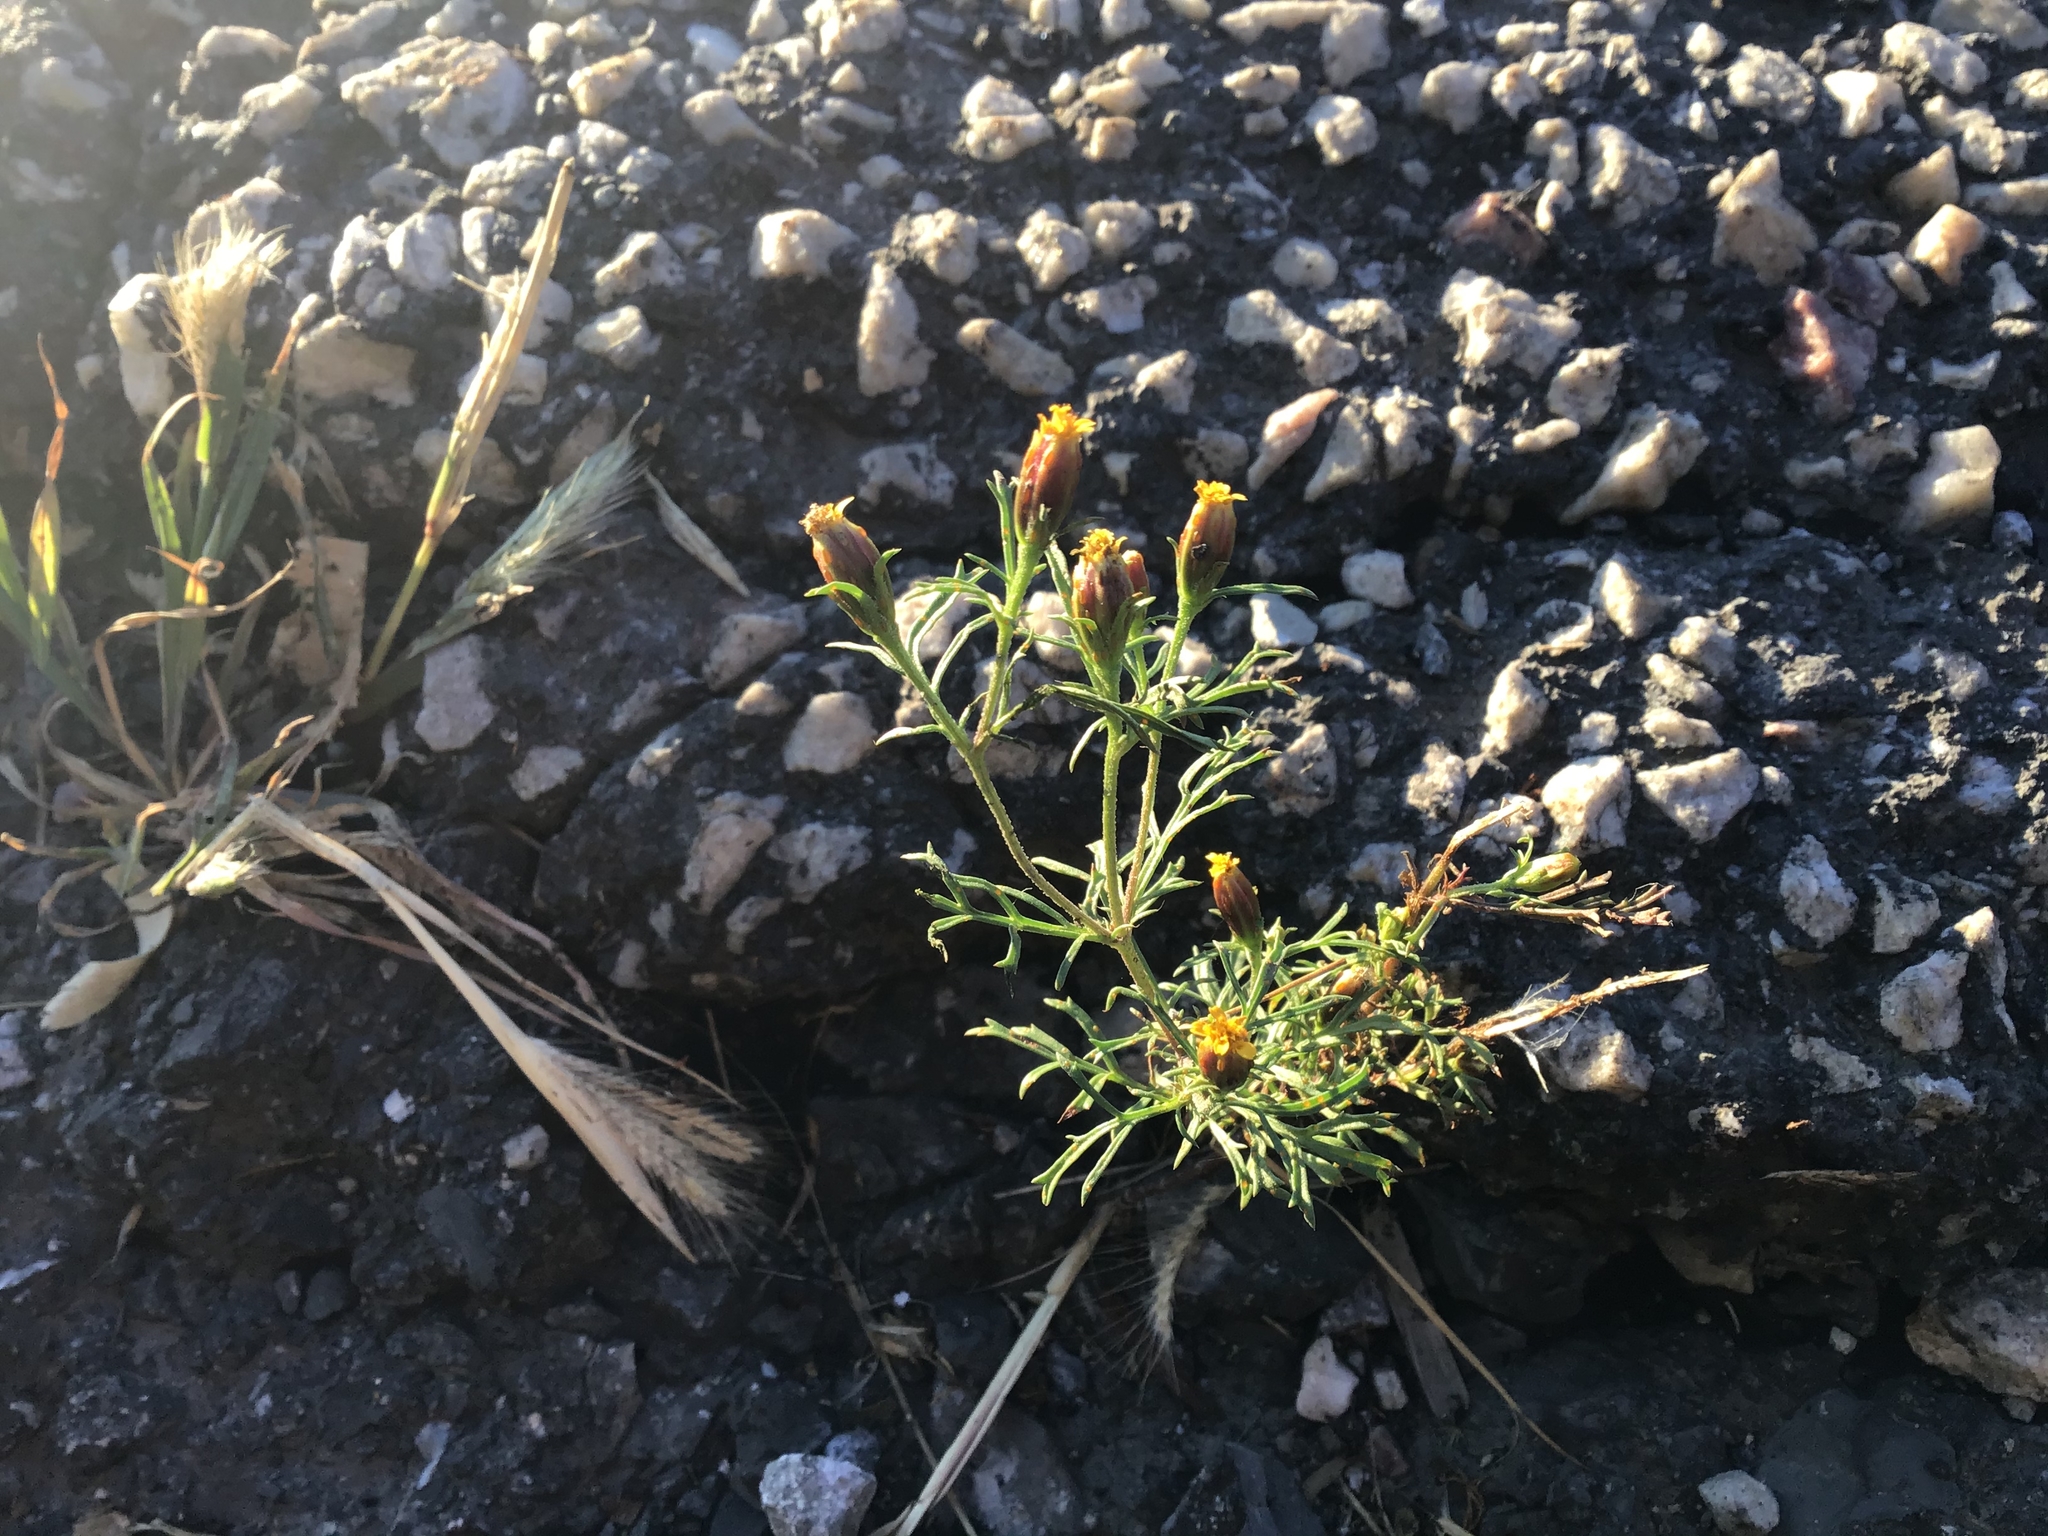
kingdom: Plantae
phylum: Tracheophyta
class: Magnoliopsida
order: Asterales
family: Asteraceae
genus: Dyssodia
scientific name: Dyssodia papposa
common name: Dogweed
